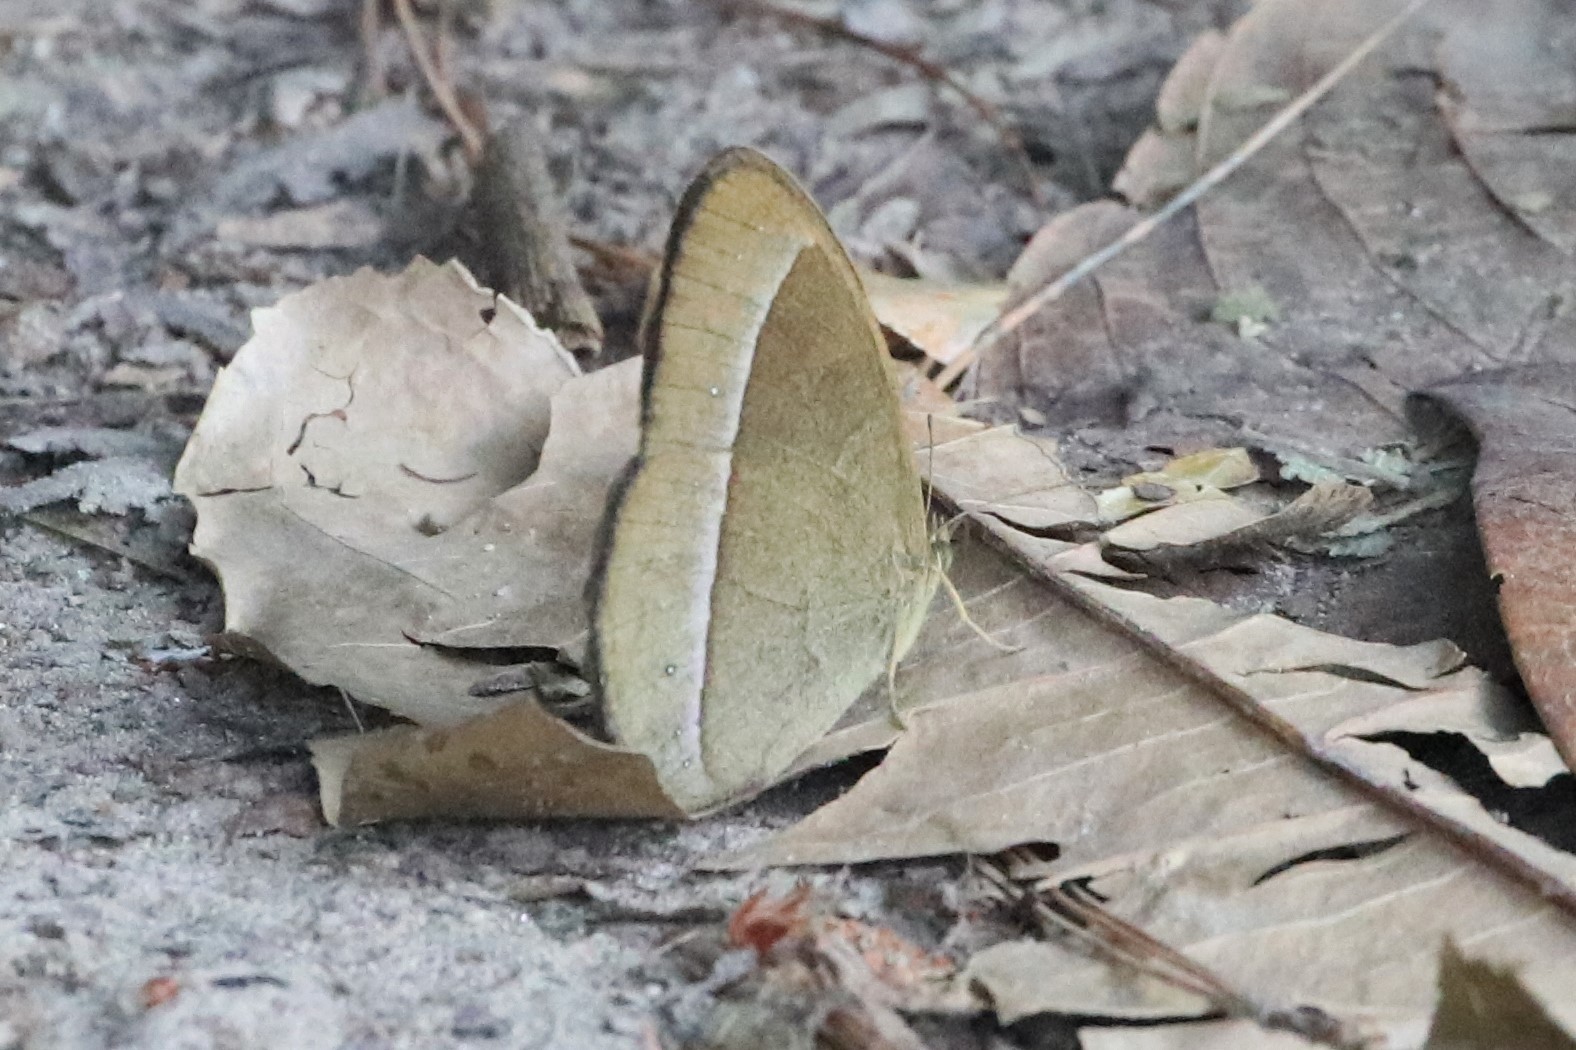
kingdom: Animalia
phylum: Arthropoda
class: Insecta
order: Lepidoptera
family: Nymphalidae
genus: Mycalesis
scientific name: Mycalesis francisca
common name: Lilacine bushbrown
